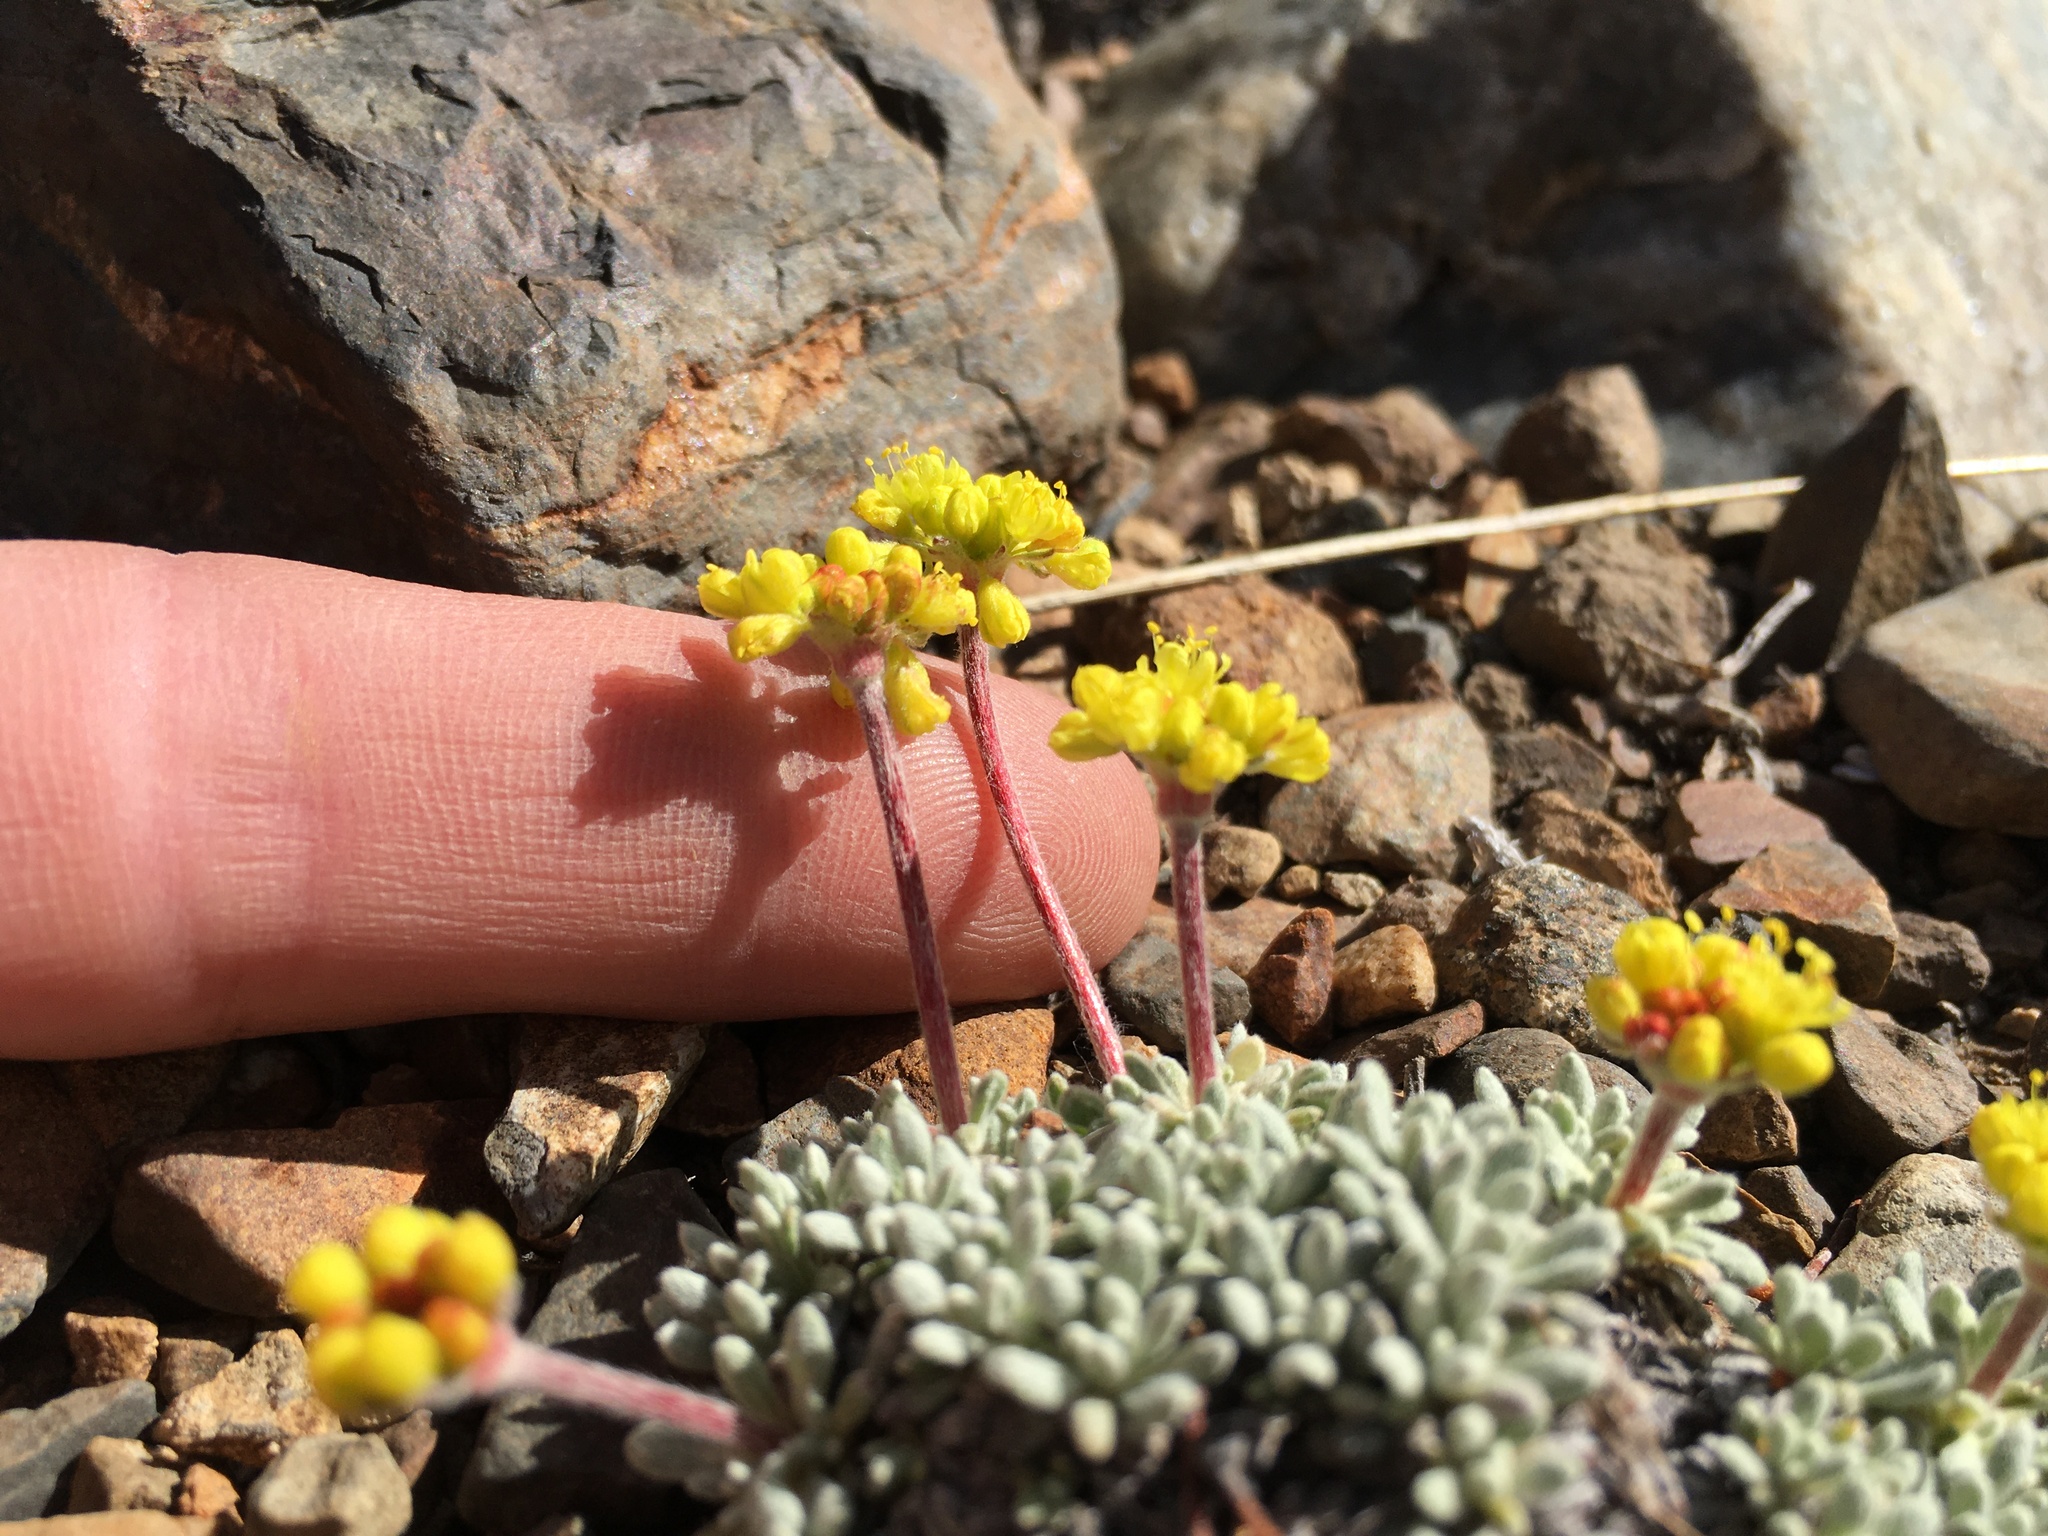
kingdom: Plantae
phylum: Tracheophyta
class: Magnoliopsida
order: Caryophyllales
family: Polygonaceae
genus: Eriogonum
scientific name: Eriogonum caespitosum
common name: Matted wild buckwheat
